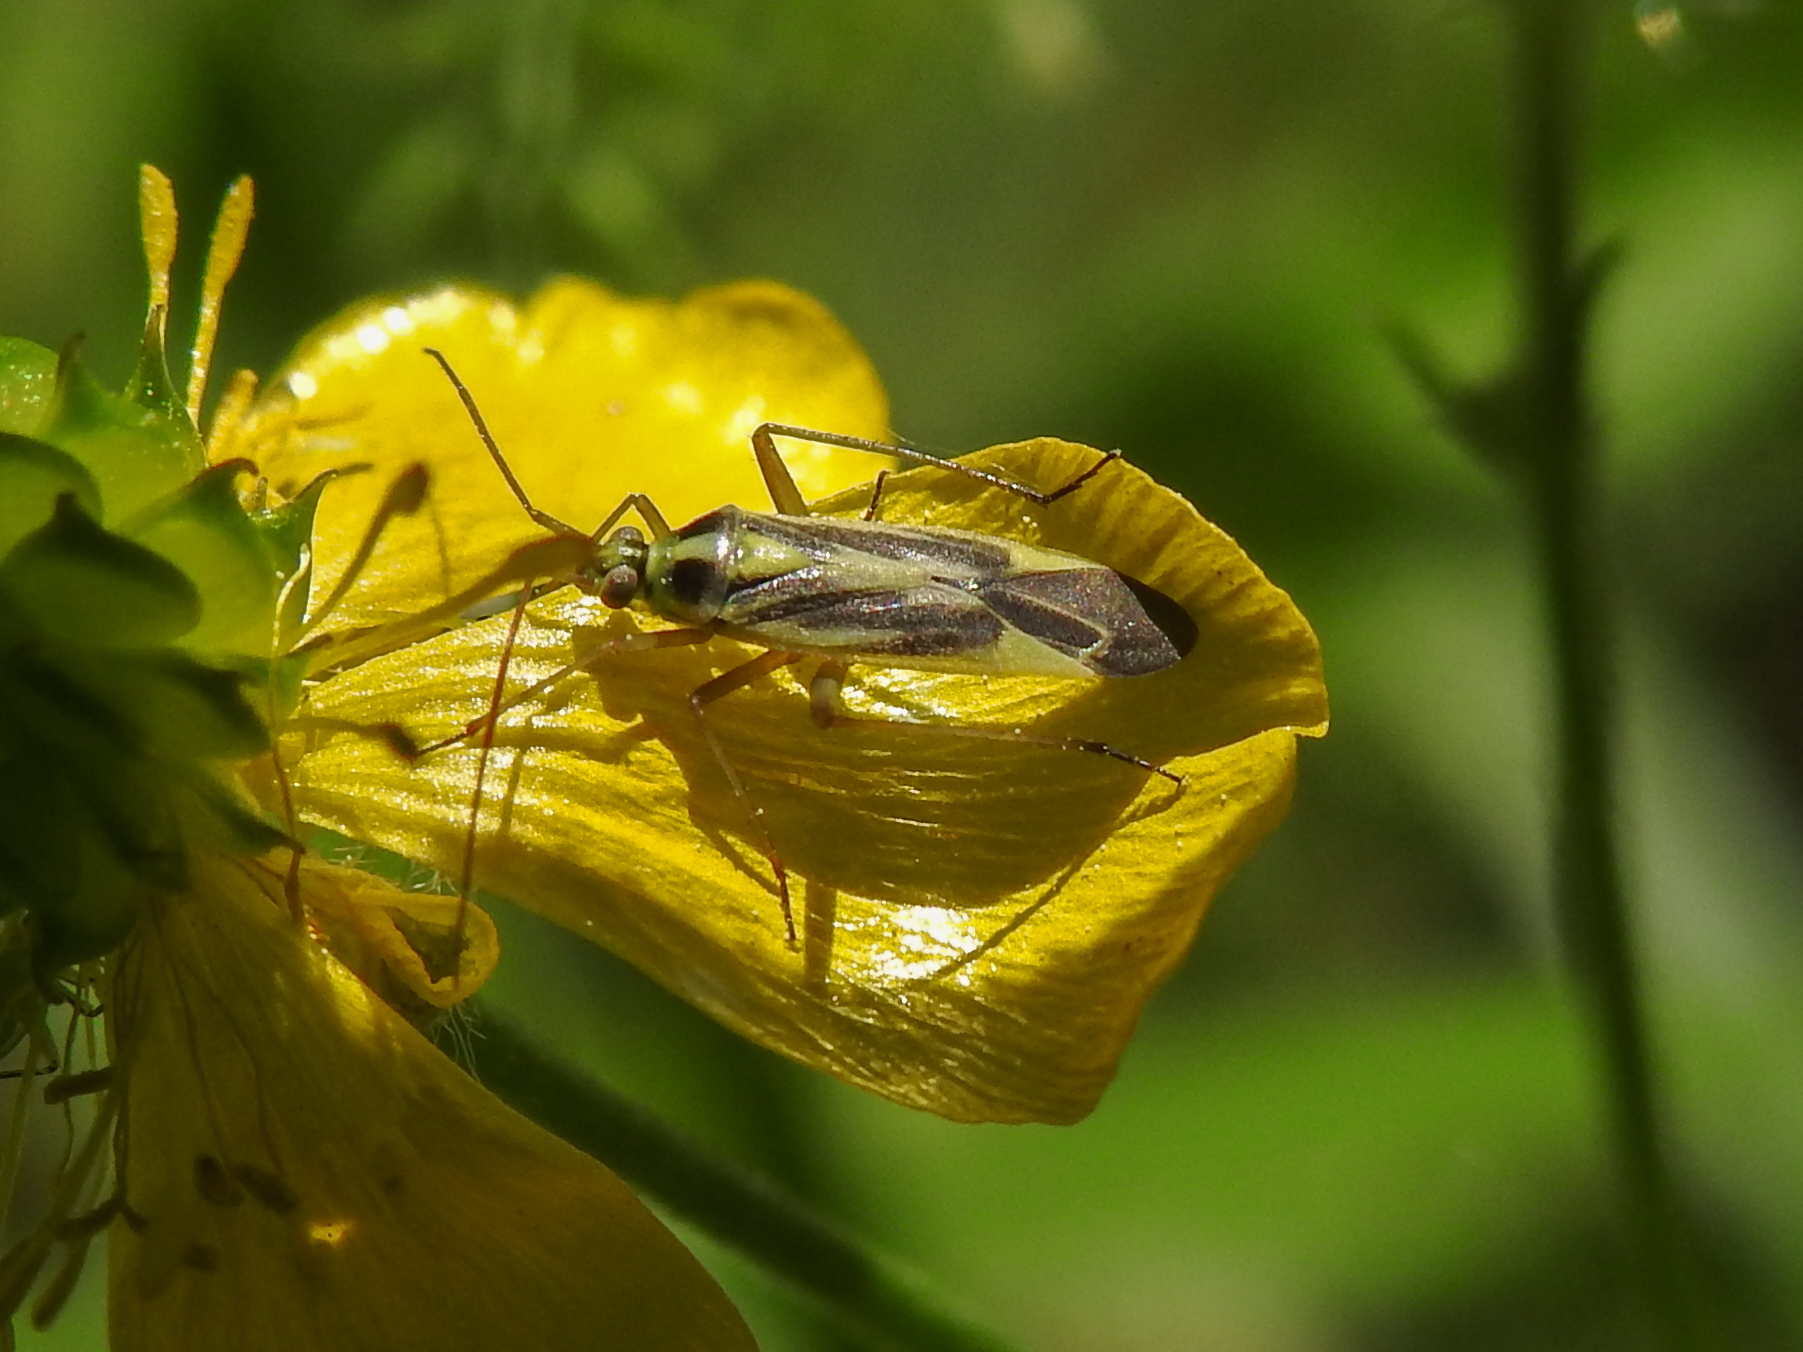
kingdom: Animalia
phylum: Arthropoda
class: Insecta
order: Hemiptera
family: Miridae
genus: Stenotus
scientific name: Stenotus binotatus
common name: Plant bug
